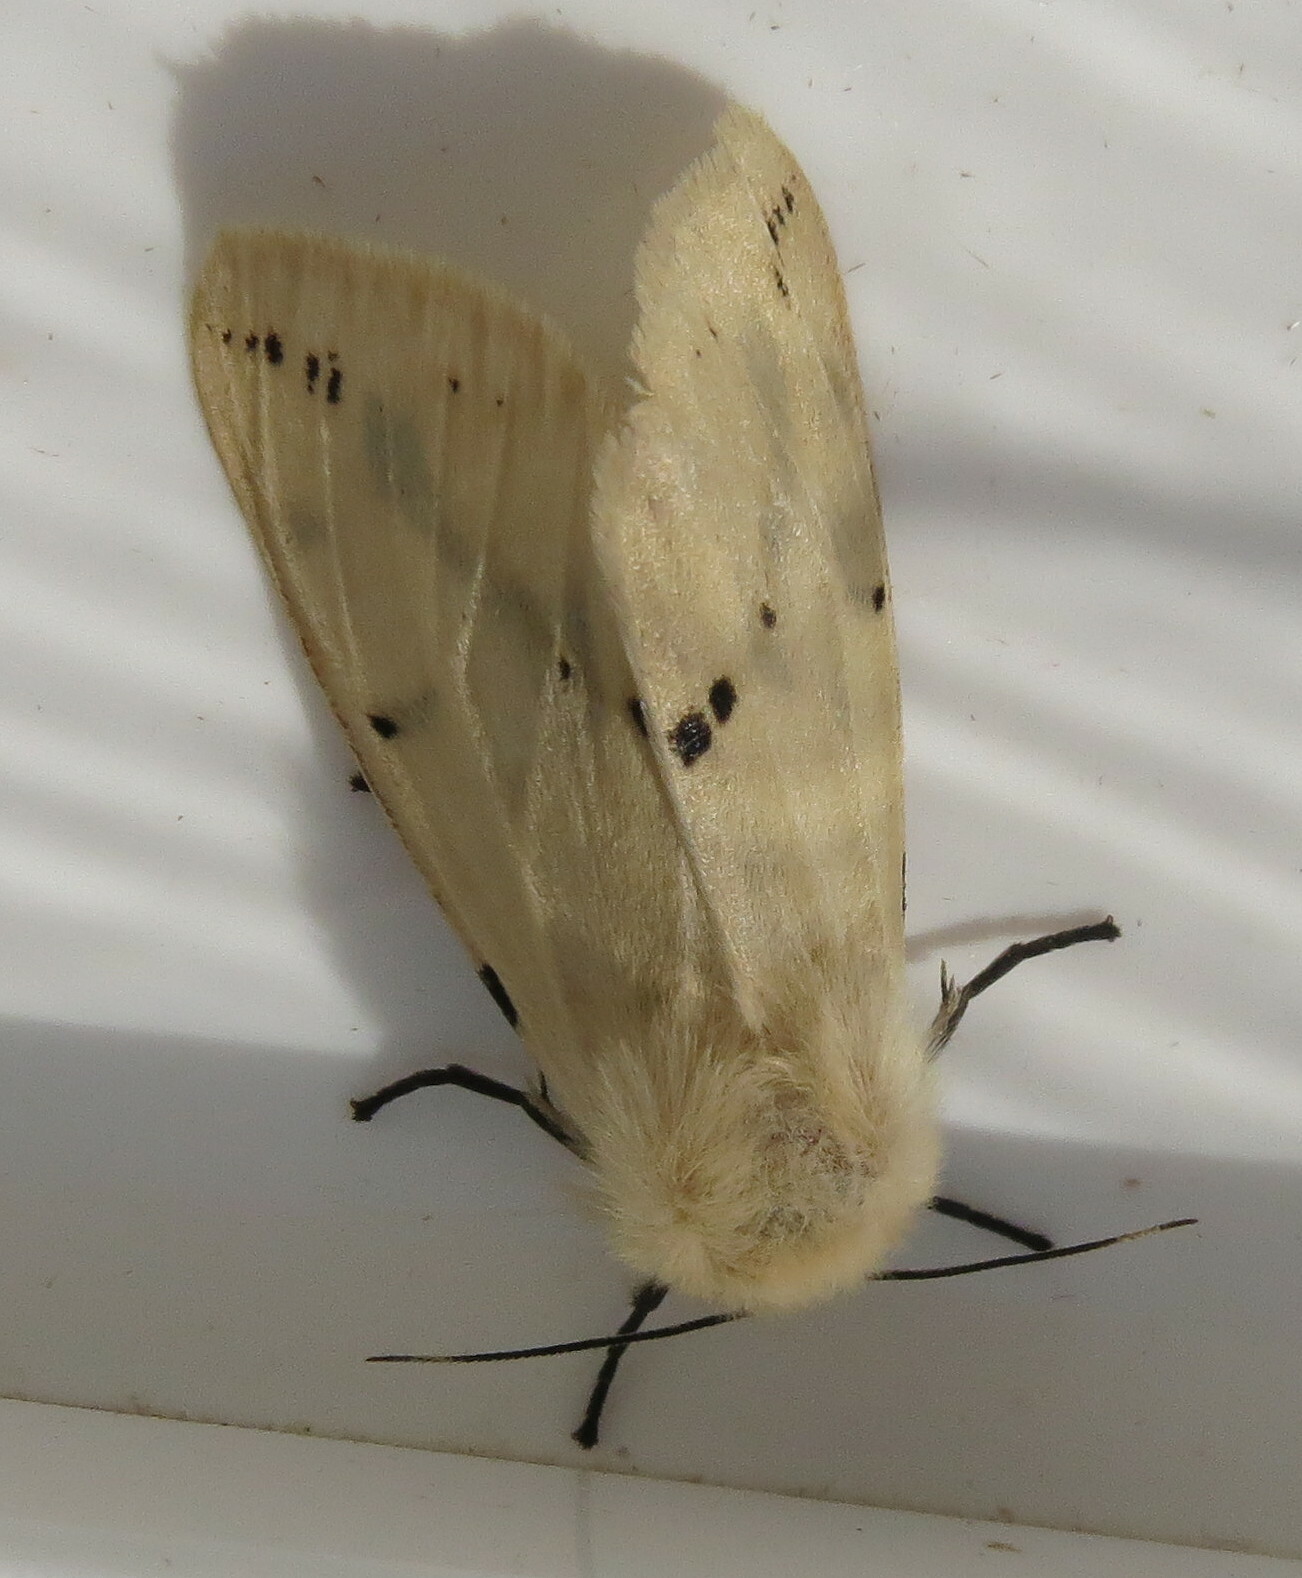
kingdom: Animalia
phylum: Arthropoda
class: Insecta
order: Lepidoptera
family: Erebidae
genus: Spilarctia
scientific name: Spilarctia lutea
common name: Buff ermine
